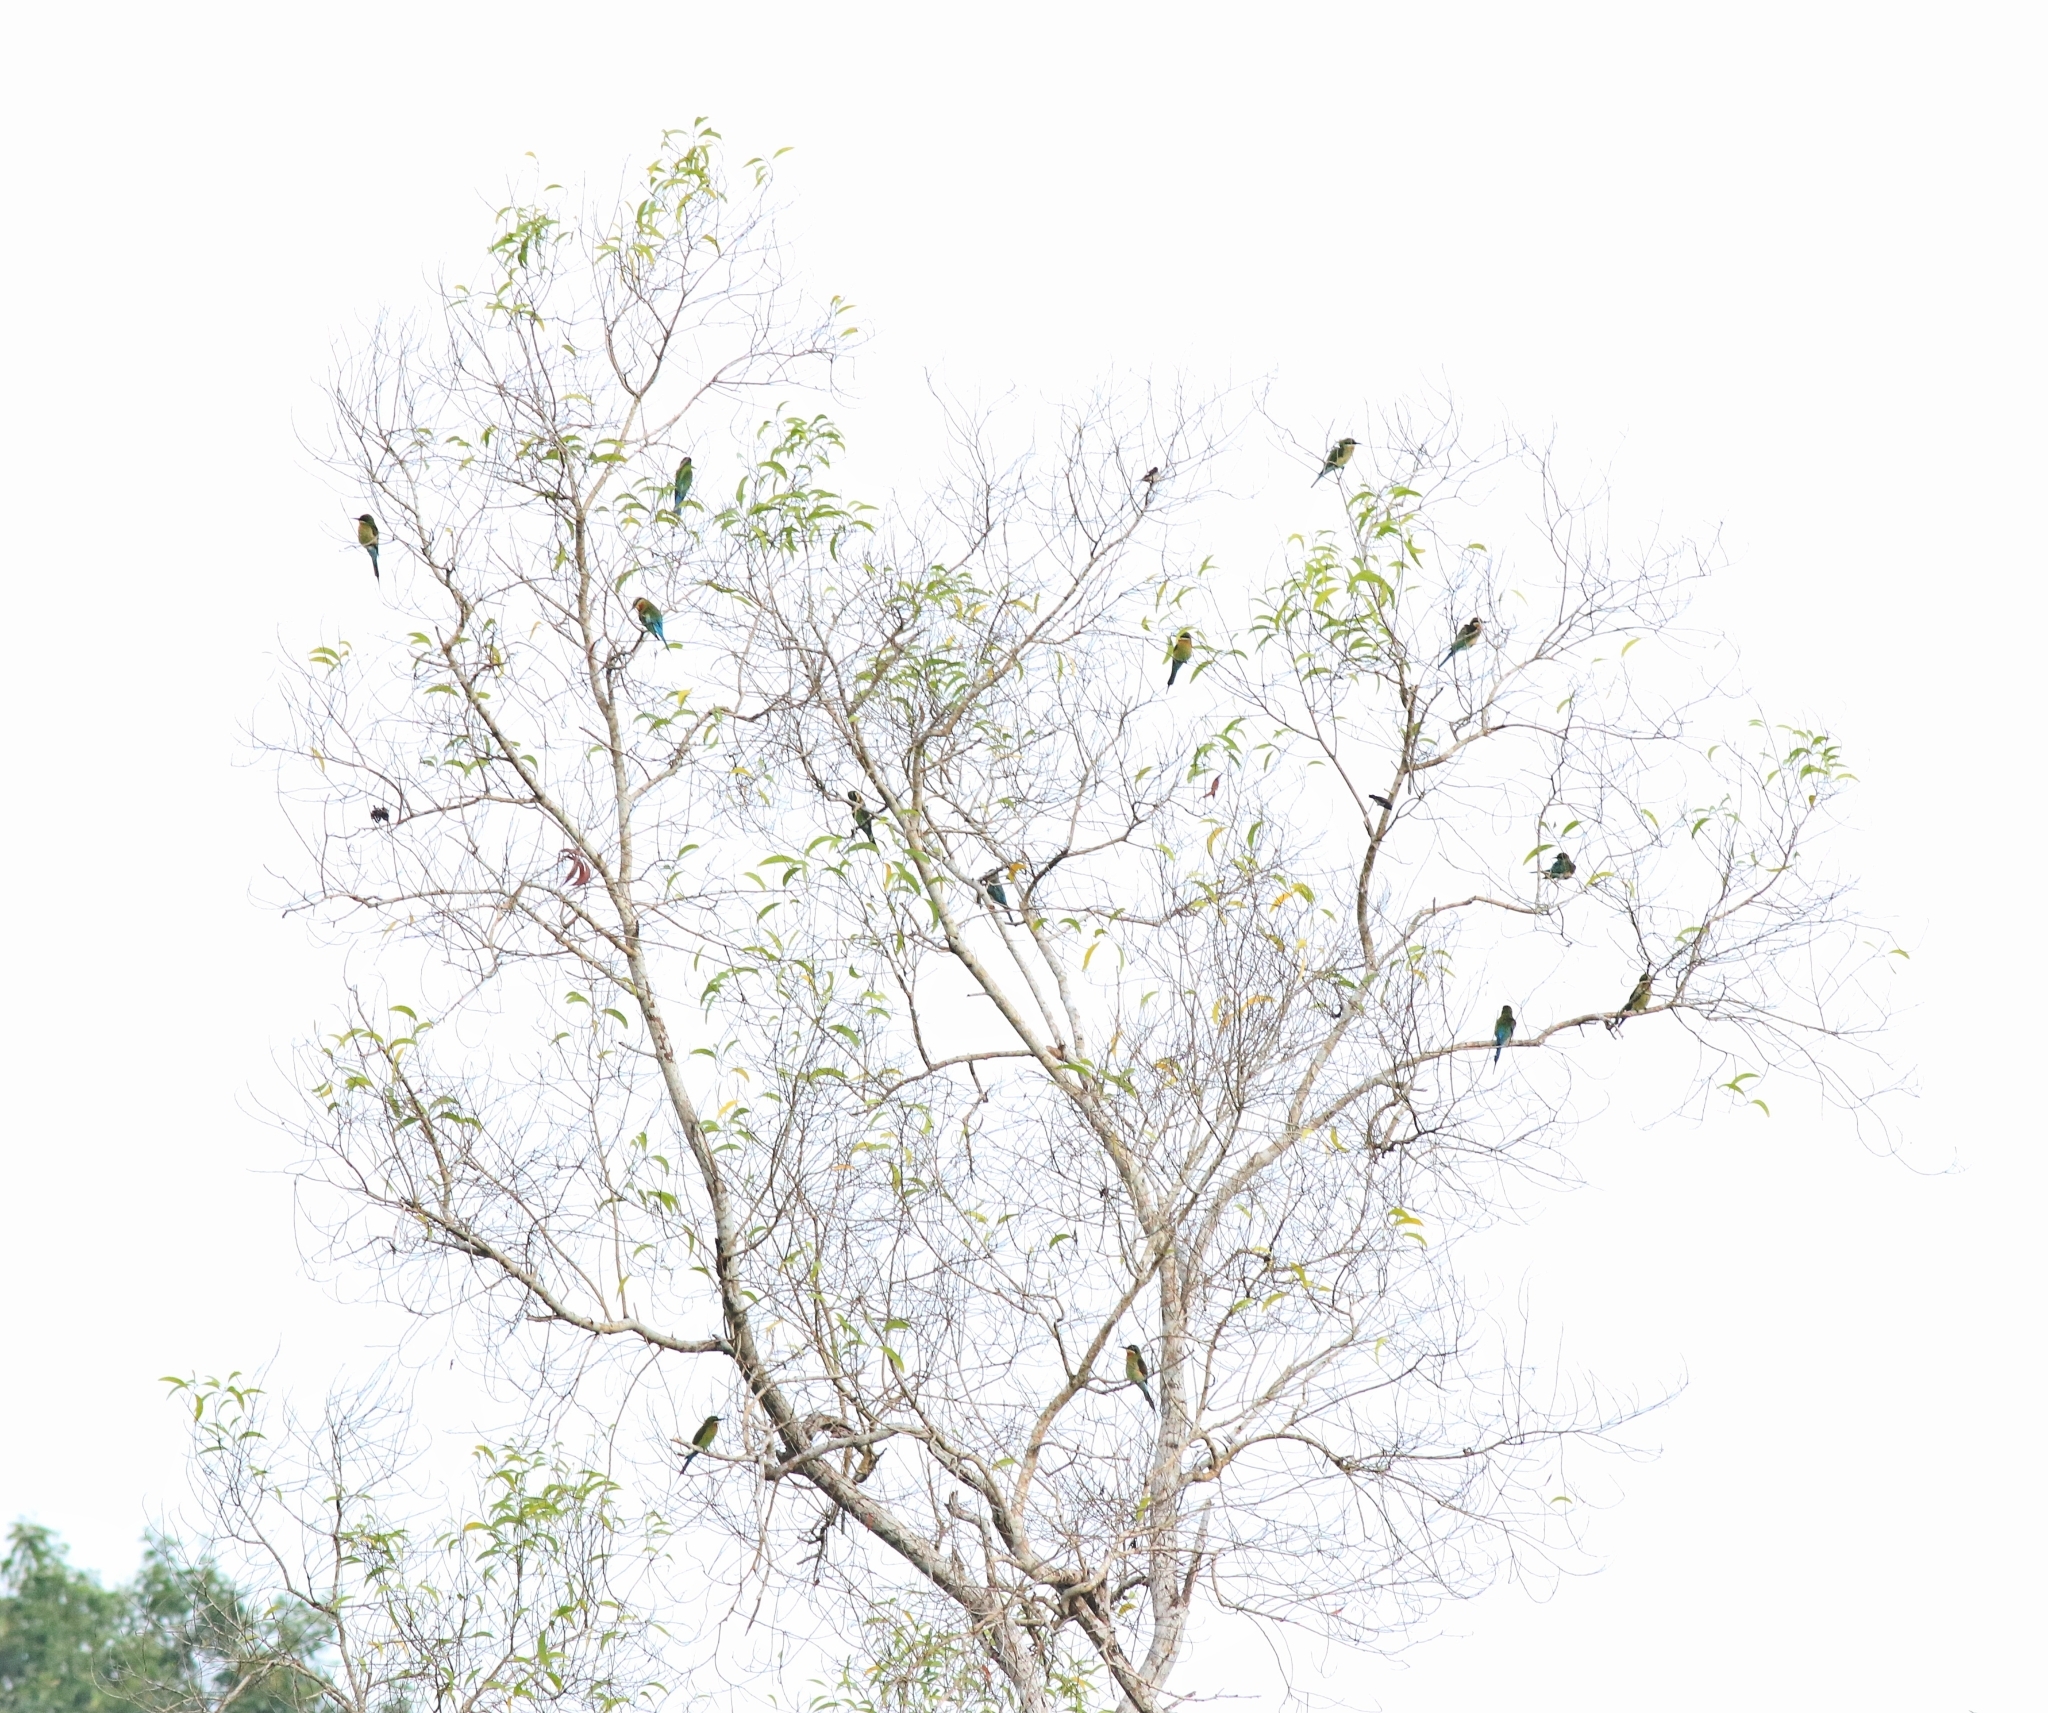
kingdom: Animalia
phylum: Chordata
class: Aves
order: Coraciiformes
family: Meropidae
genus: Merops
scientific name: Merops philippinus
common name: Blue-tailed bee-eater
